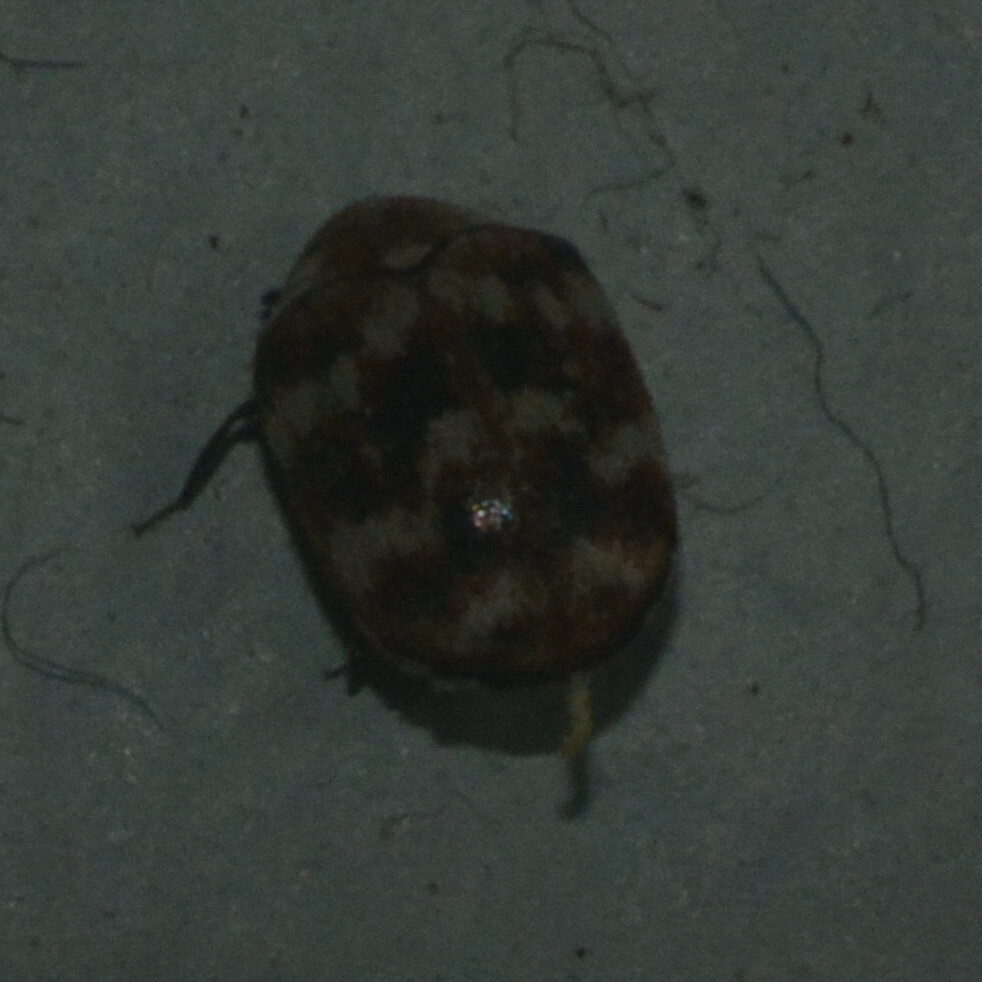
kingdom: Animalia
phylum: Arthropoda
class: Insecta
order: Coleoptera
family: Dermestidae
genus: Anthrenus
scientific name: Anthrenus verbasci
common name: Varied carpet beetle
